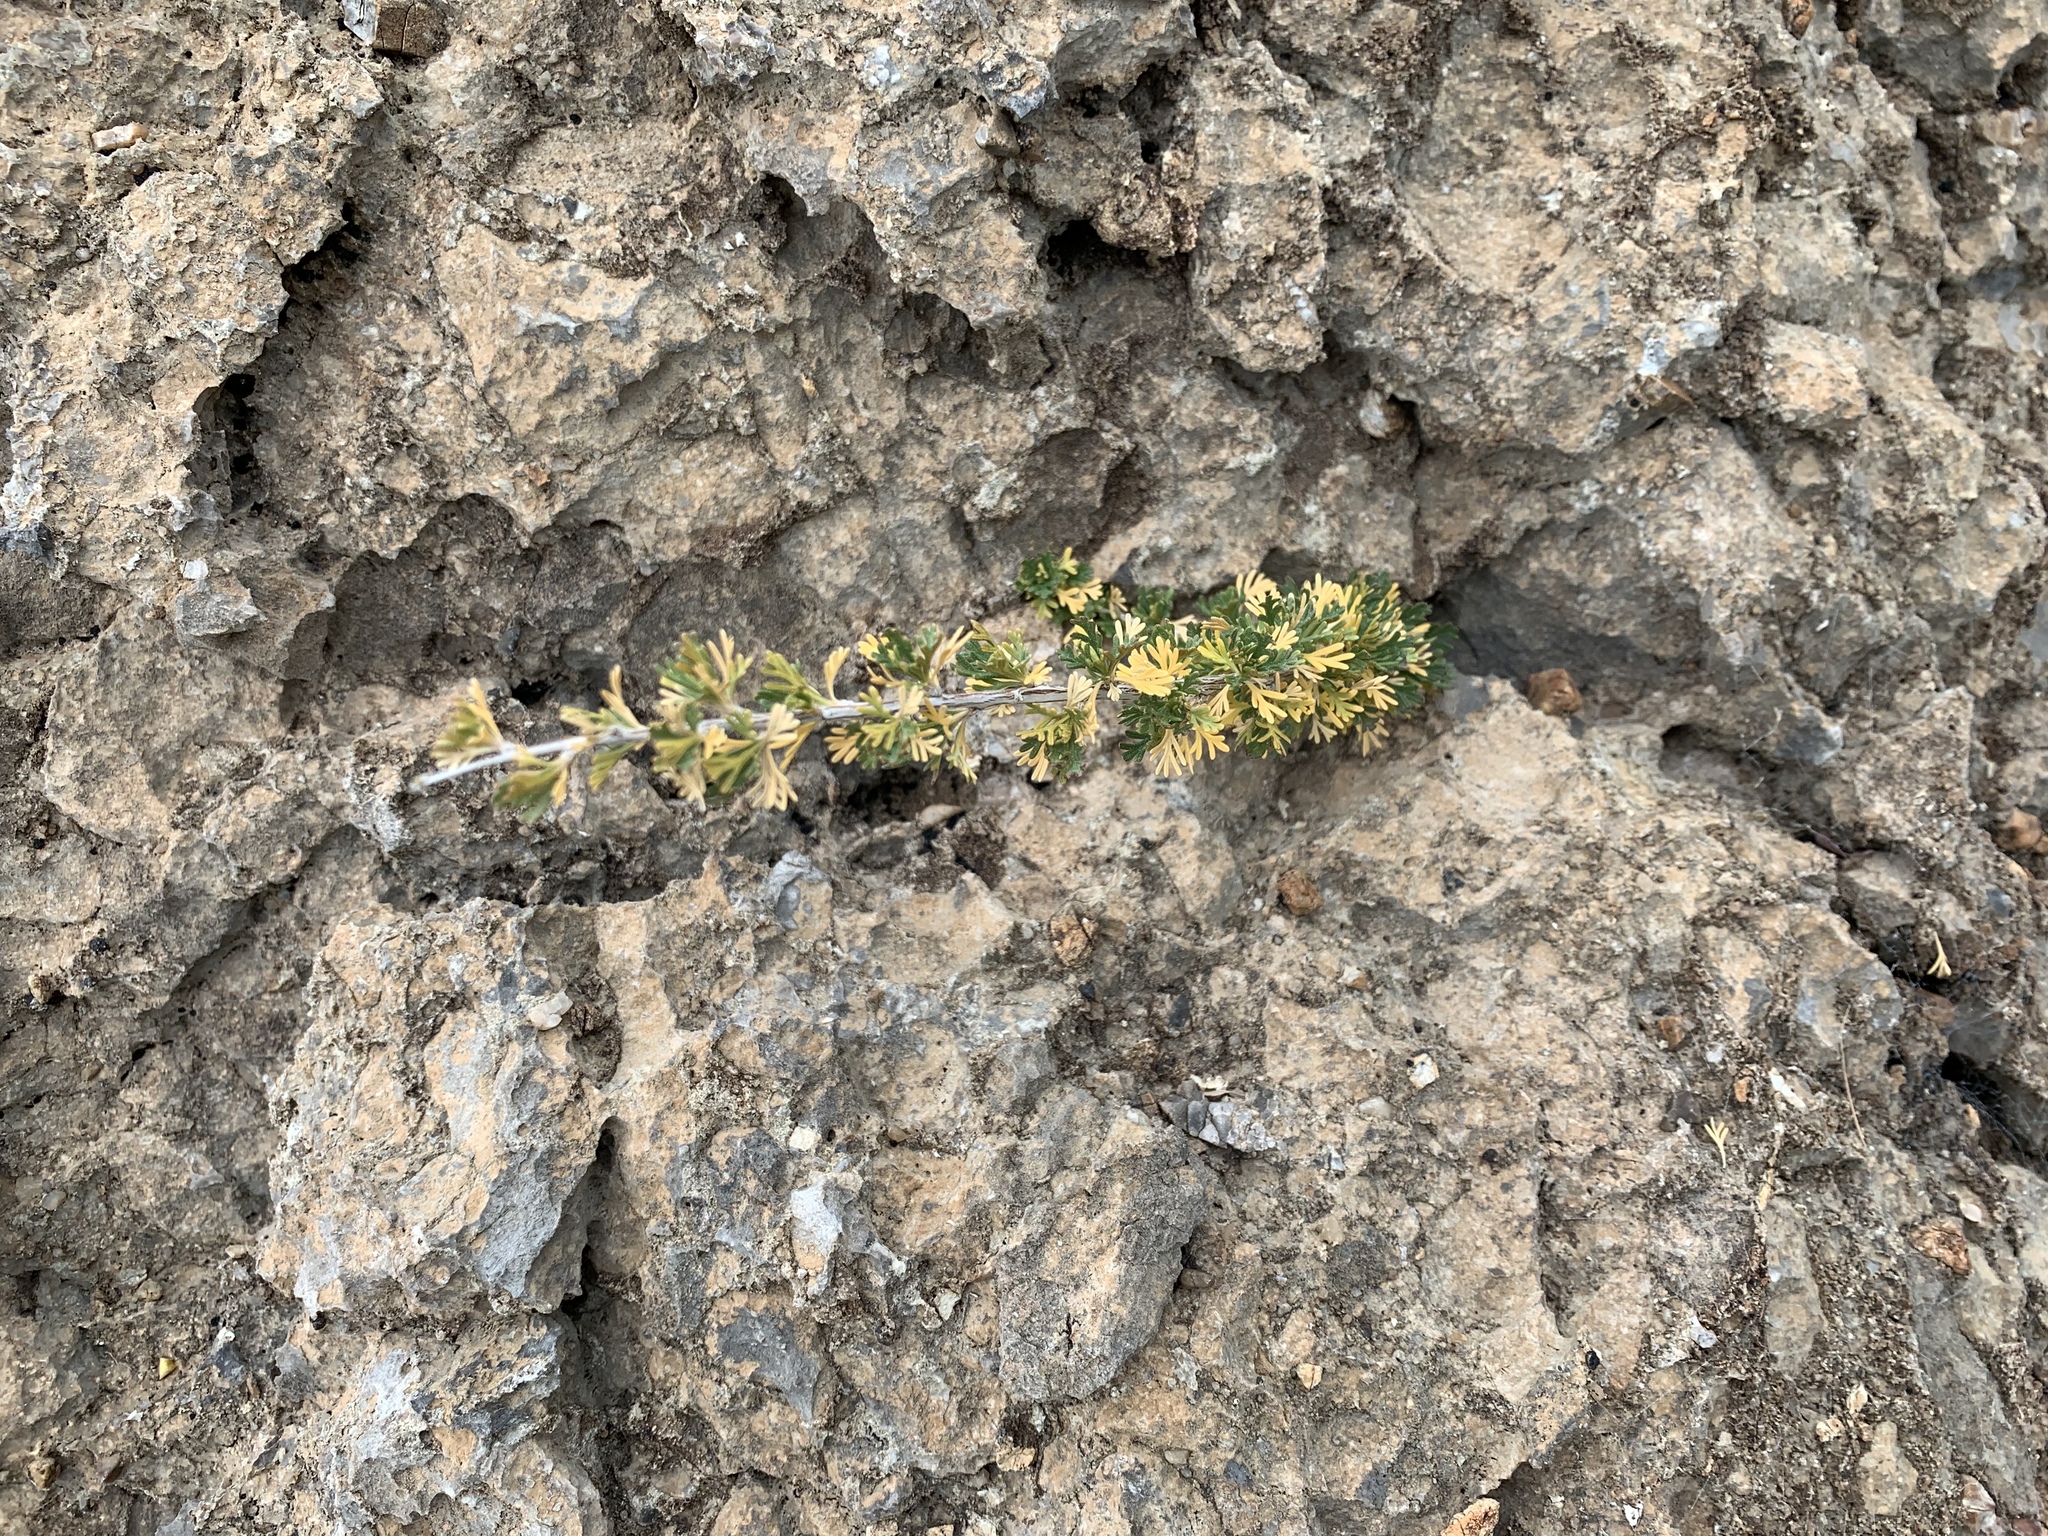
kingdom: Plantae
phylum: Tracheophyta
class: Magnoliopsida
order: Rosales
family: Rosaceae
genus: Fallugia
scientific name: Fallugia paradoxa
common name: Apache-plume
